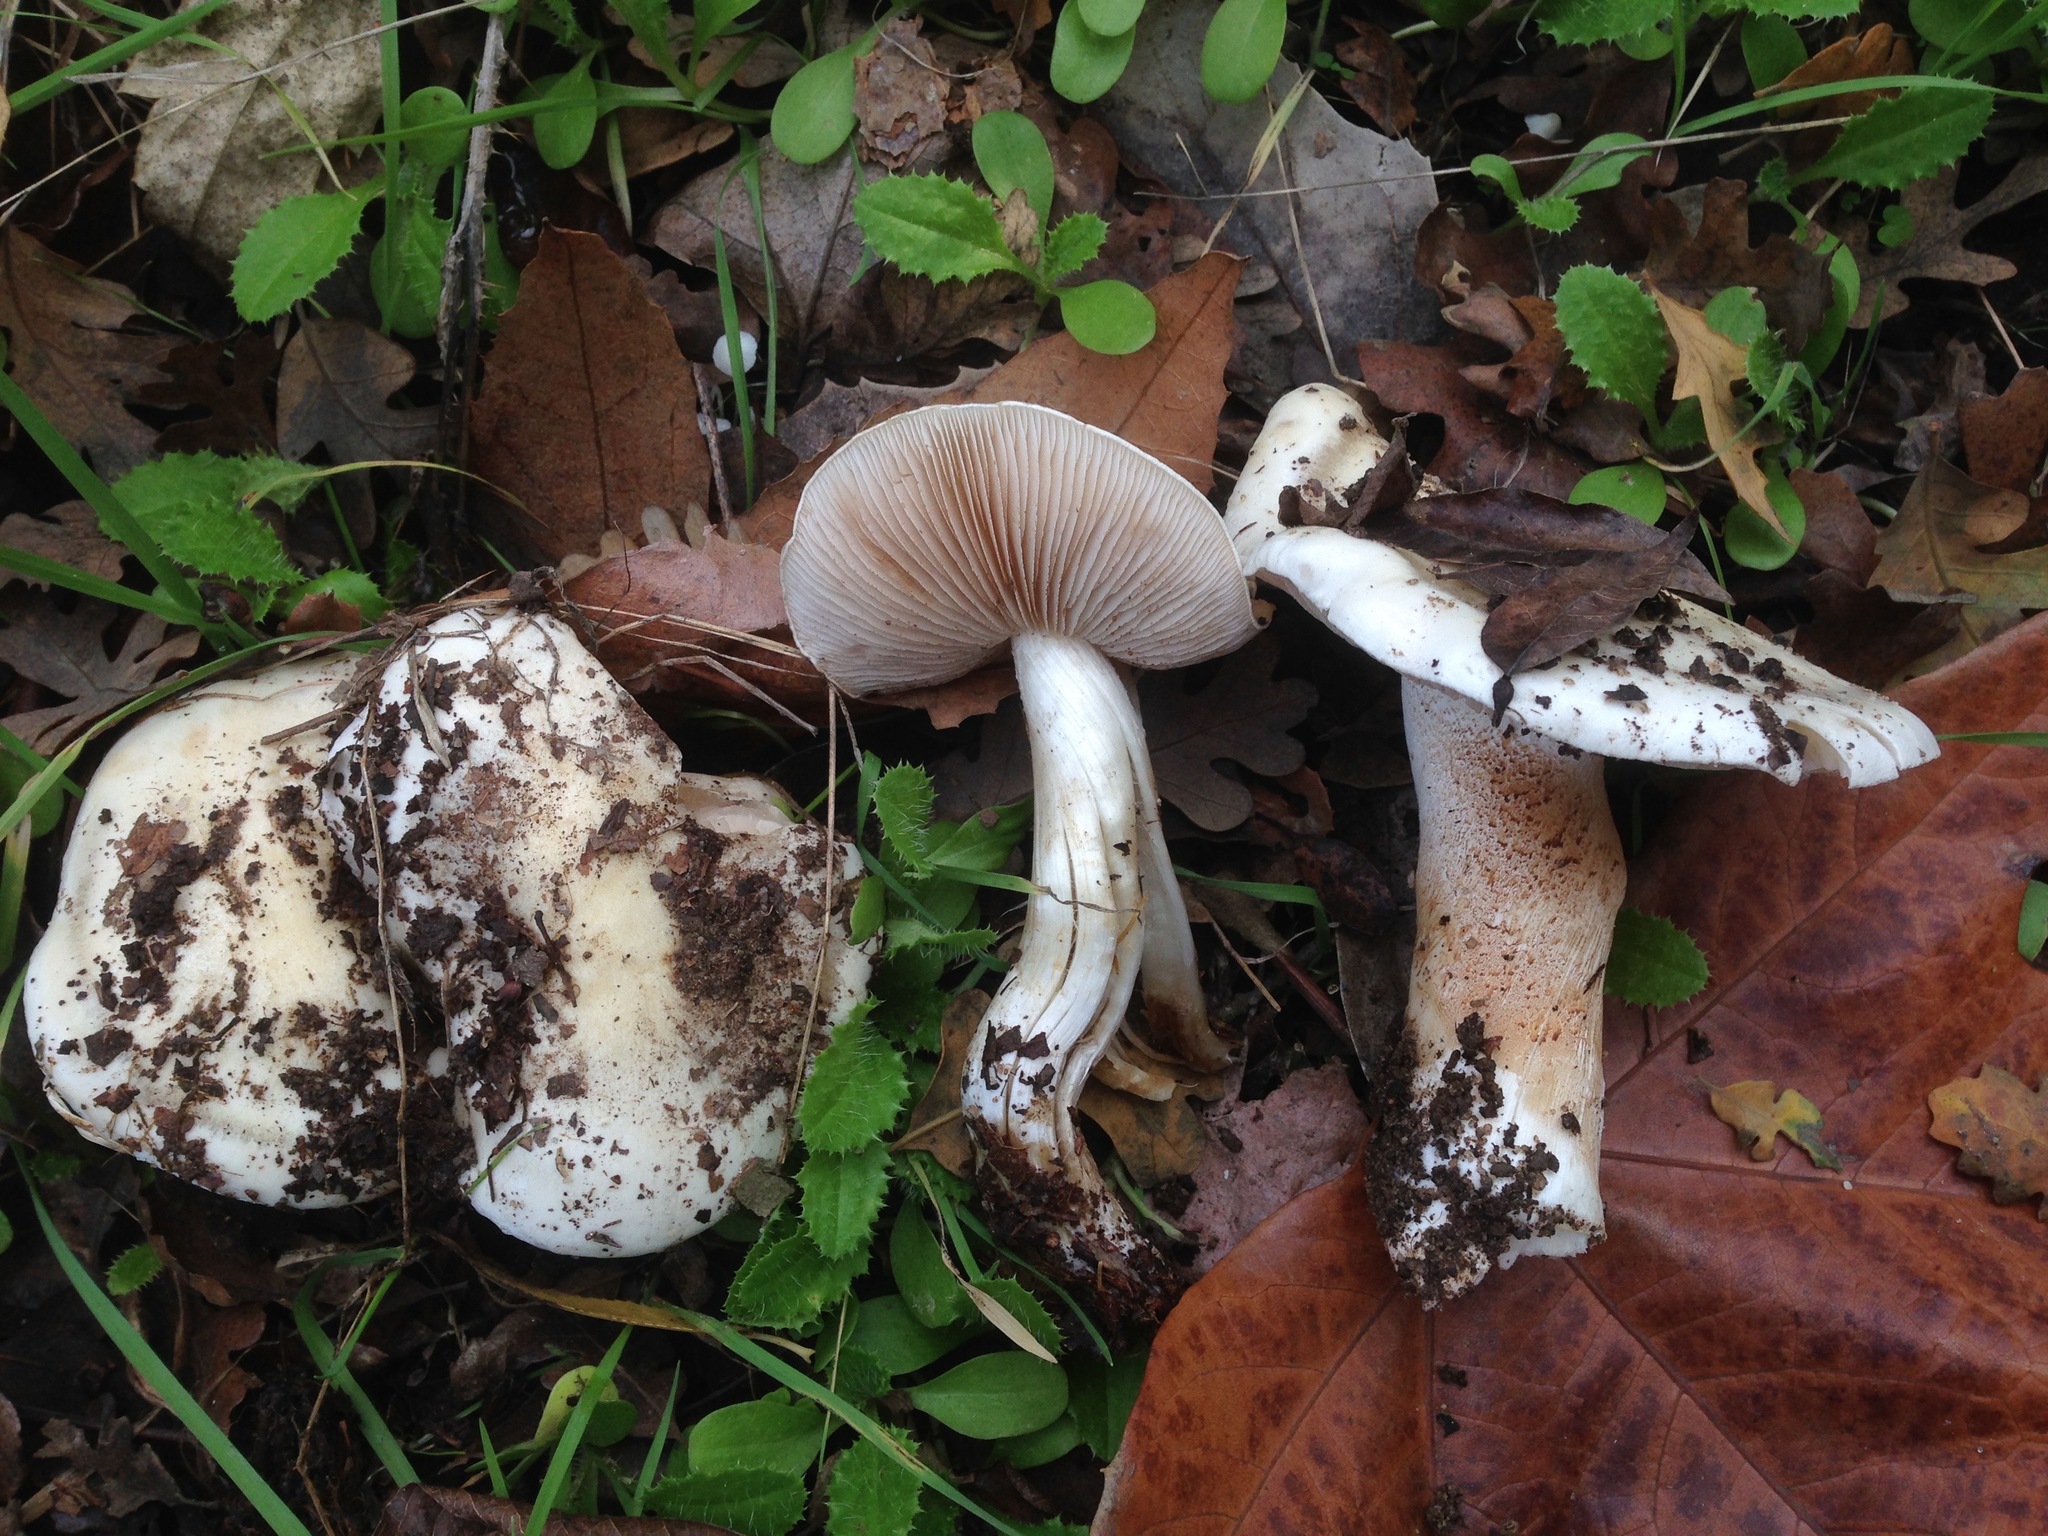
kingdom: Fungi
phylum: Basidiomycota
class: Agaricomycetes
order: Agaricales
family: Hymenogastraceae
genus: Hebeloma
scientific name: Hebeloma crustuliniforme
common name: Poison pie
